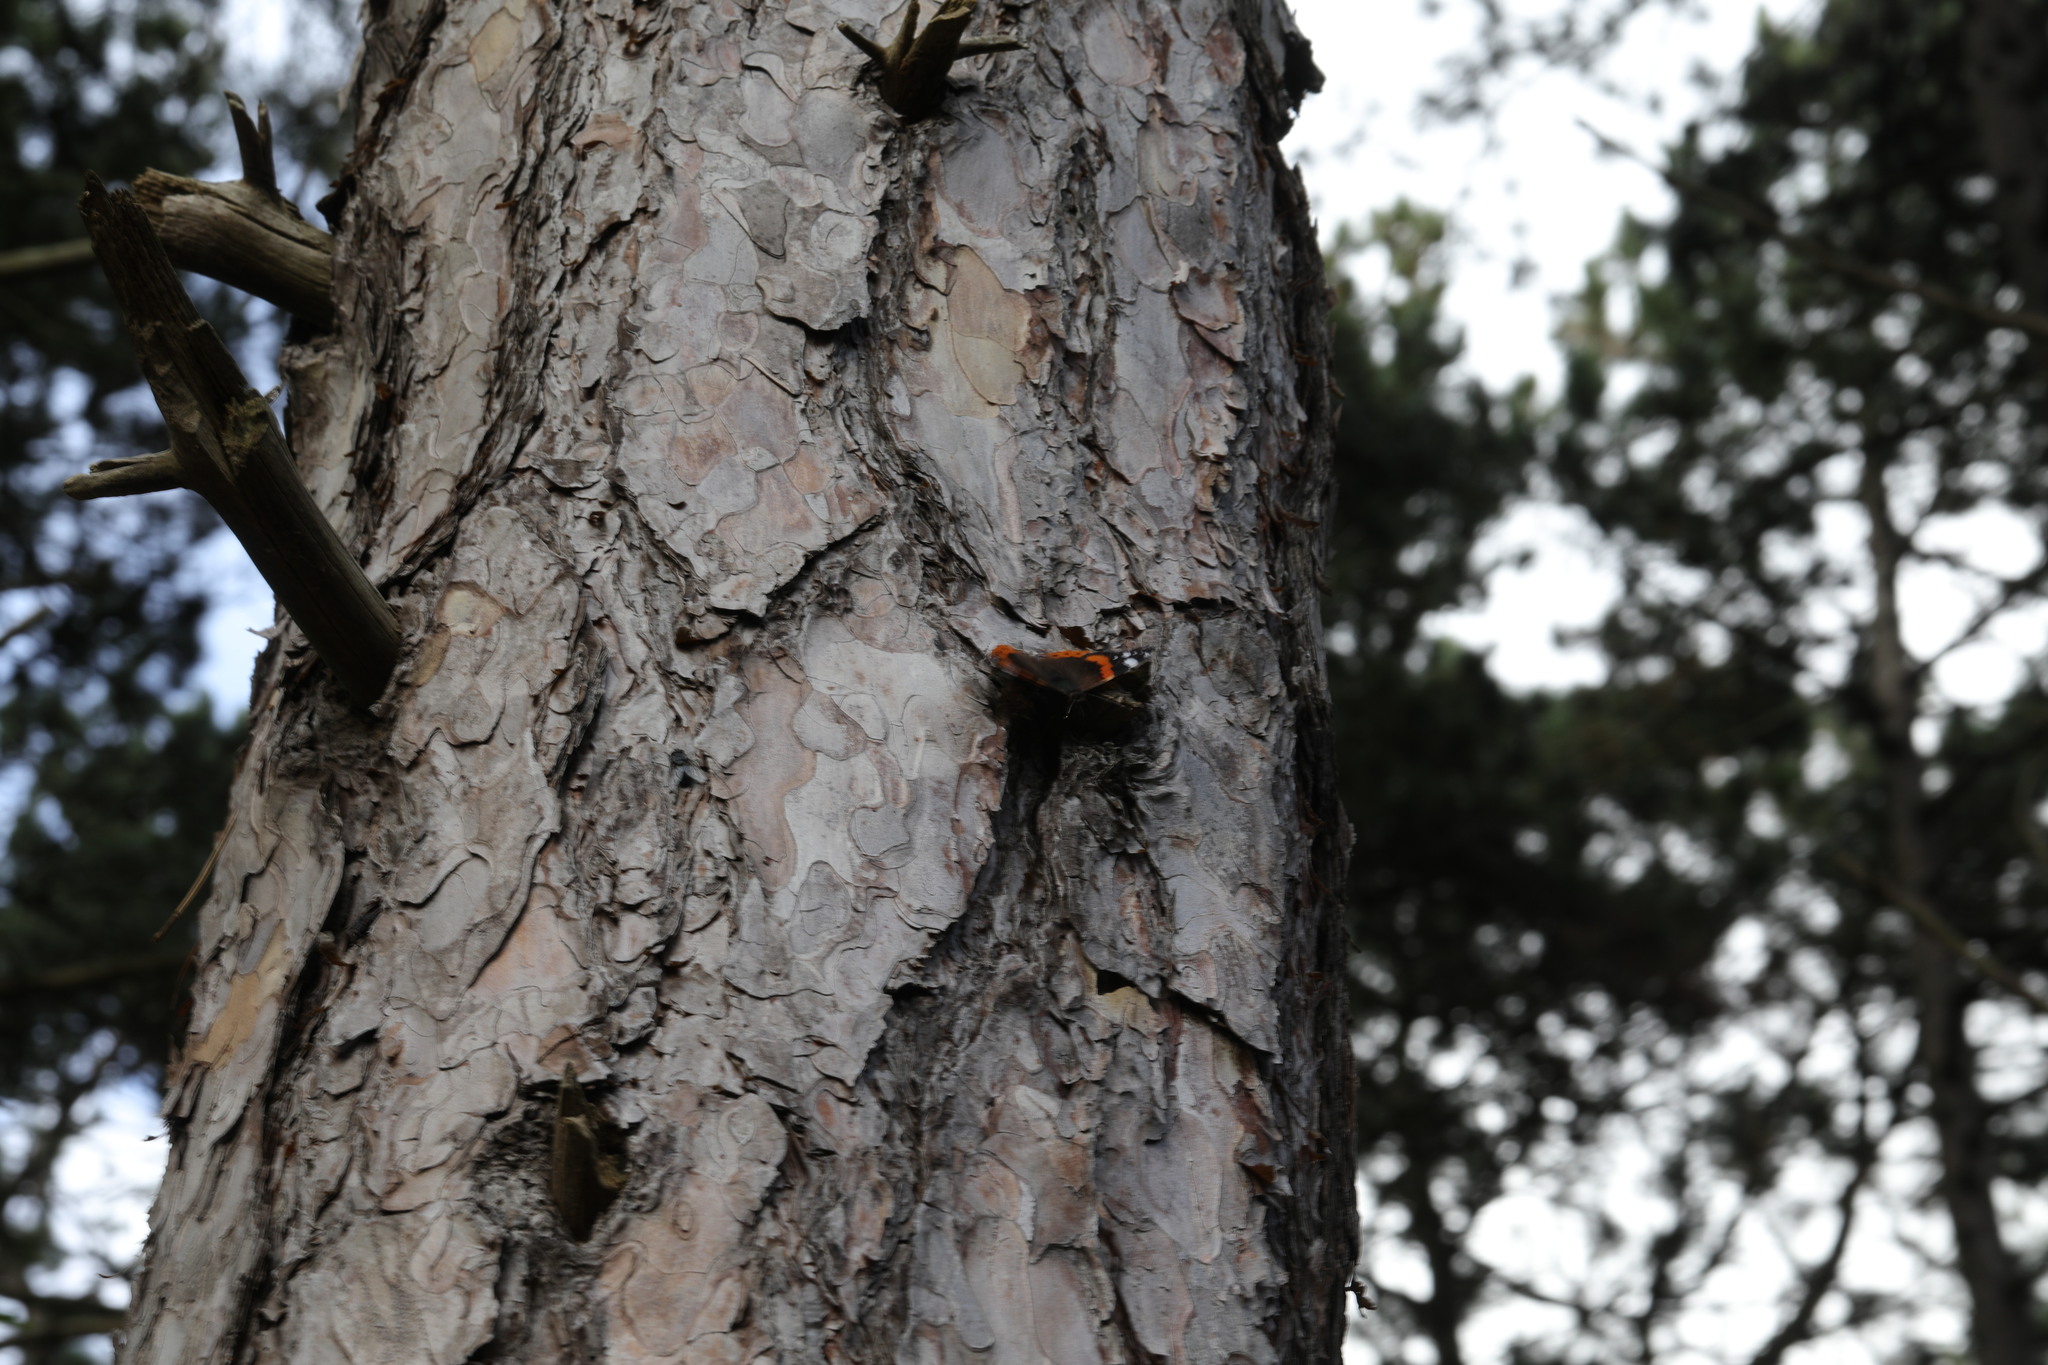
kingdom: Animalia
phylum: Arthropoda
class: Insecta
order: Lepidoptera
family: Nymphalidae
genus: Vanessa
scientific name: Vanessa atalanta
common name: Red admiral
